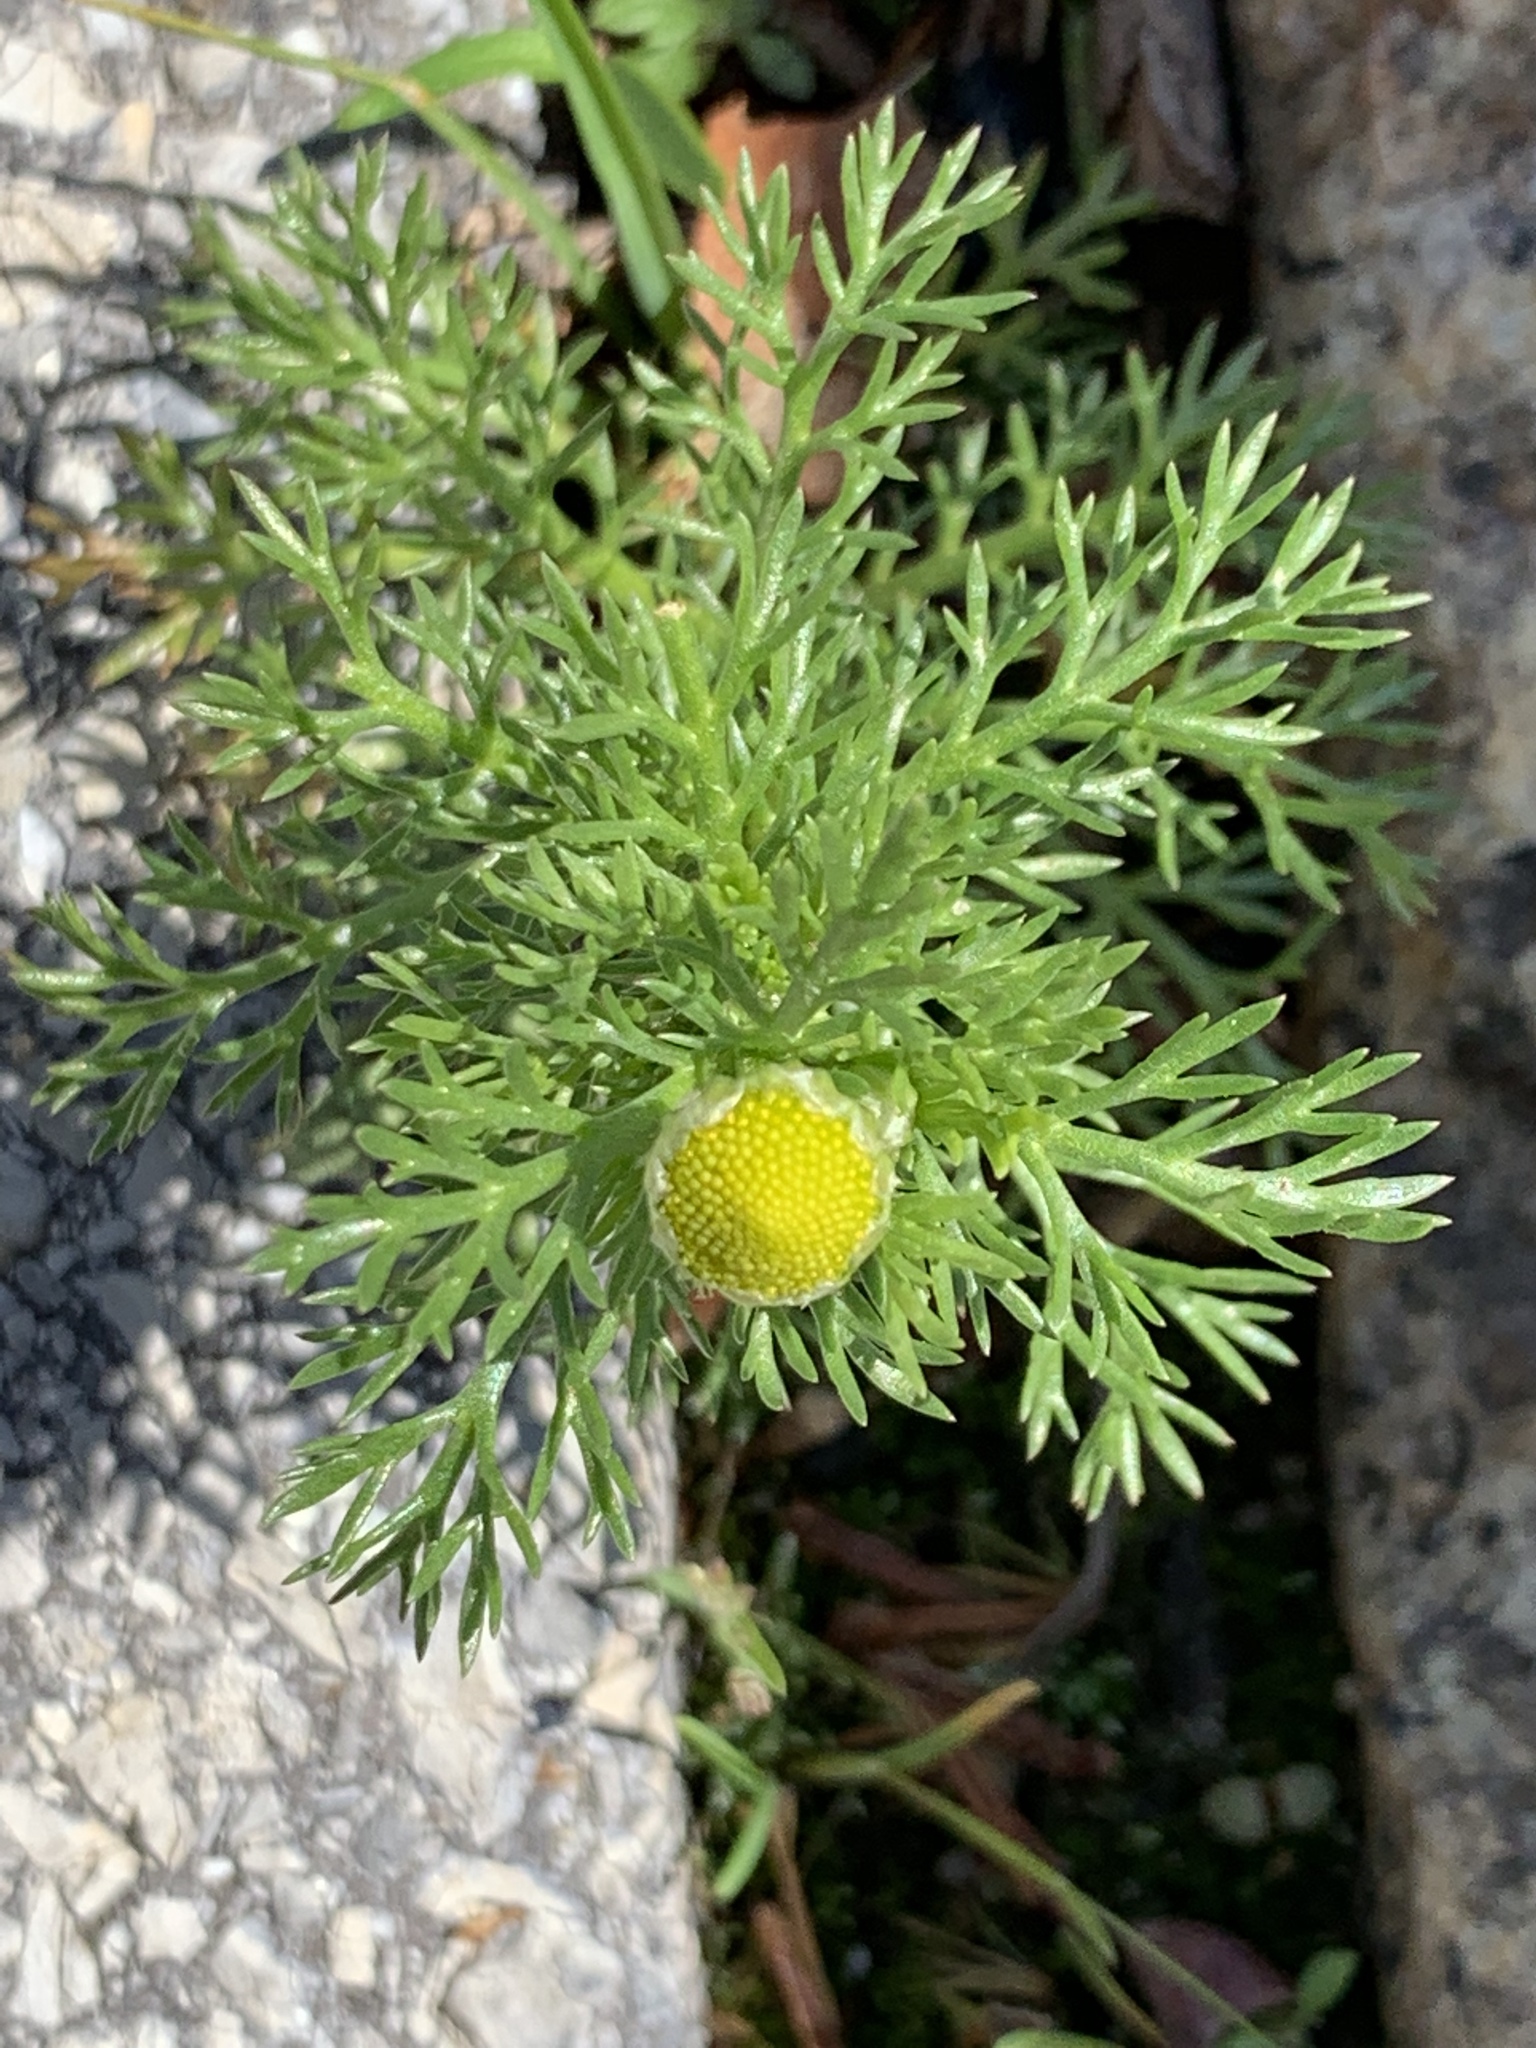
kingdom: Plantae
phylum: Tracheophyta
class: Magnoliopsida
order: Asterales
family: Asteraceae
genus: Matricaria
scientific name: Matricaria discoidea
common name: Disc mayweed
